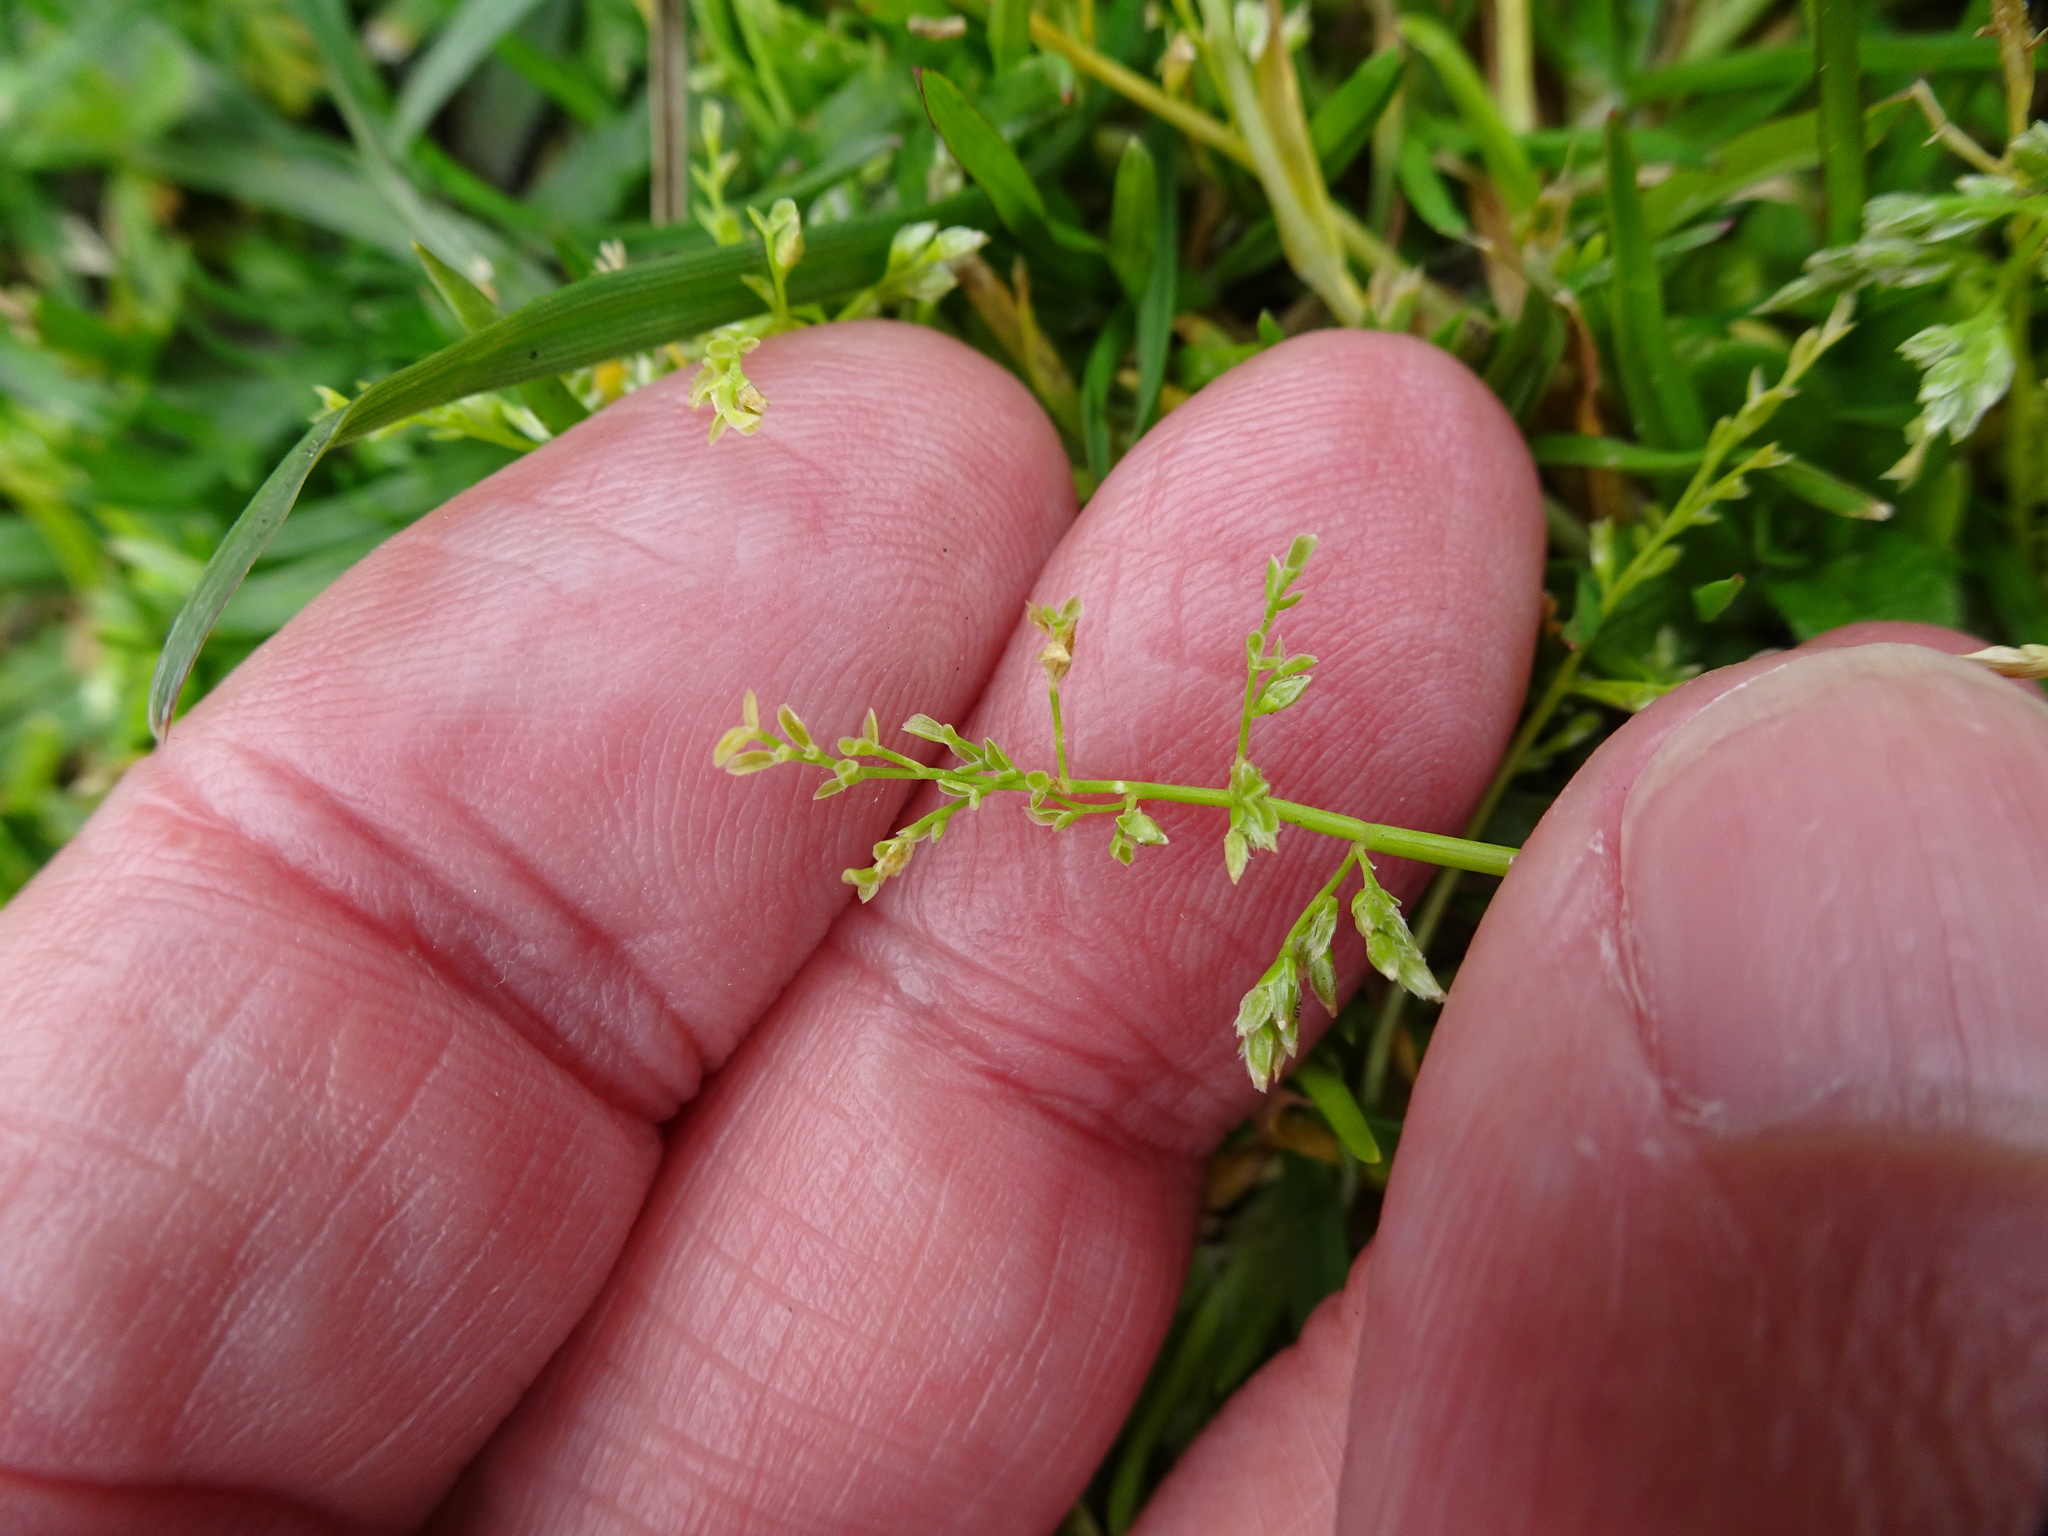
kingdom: Plantae
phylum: Tracheophyta
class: Liliopsida
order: Poales
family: Poaceae
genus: Poa
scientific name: Poa infirma
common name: Weak bluegrass
